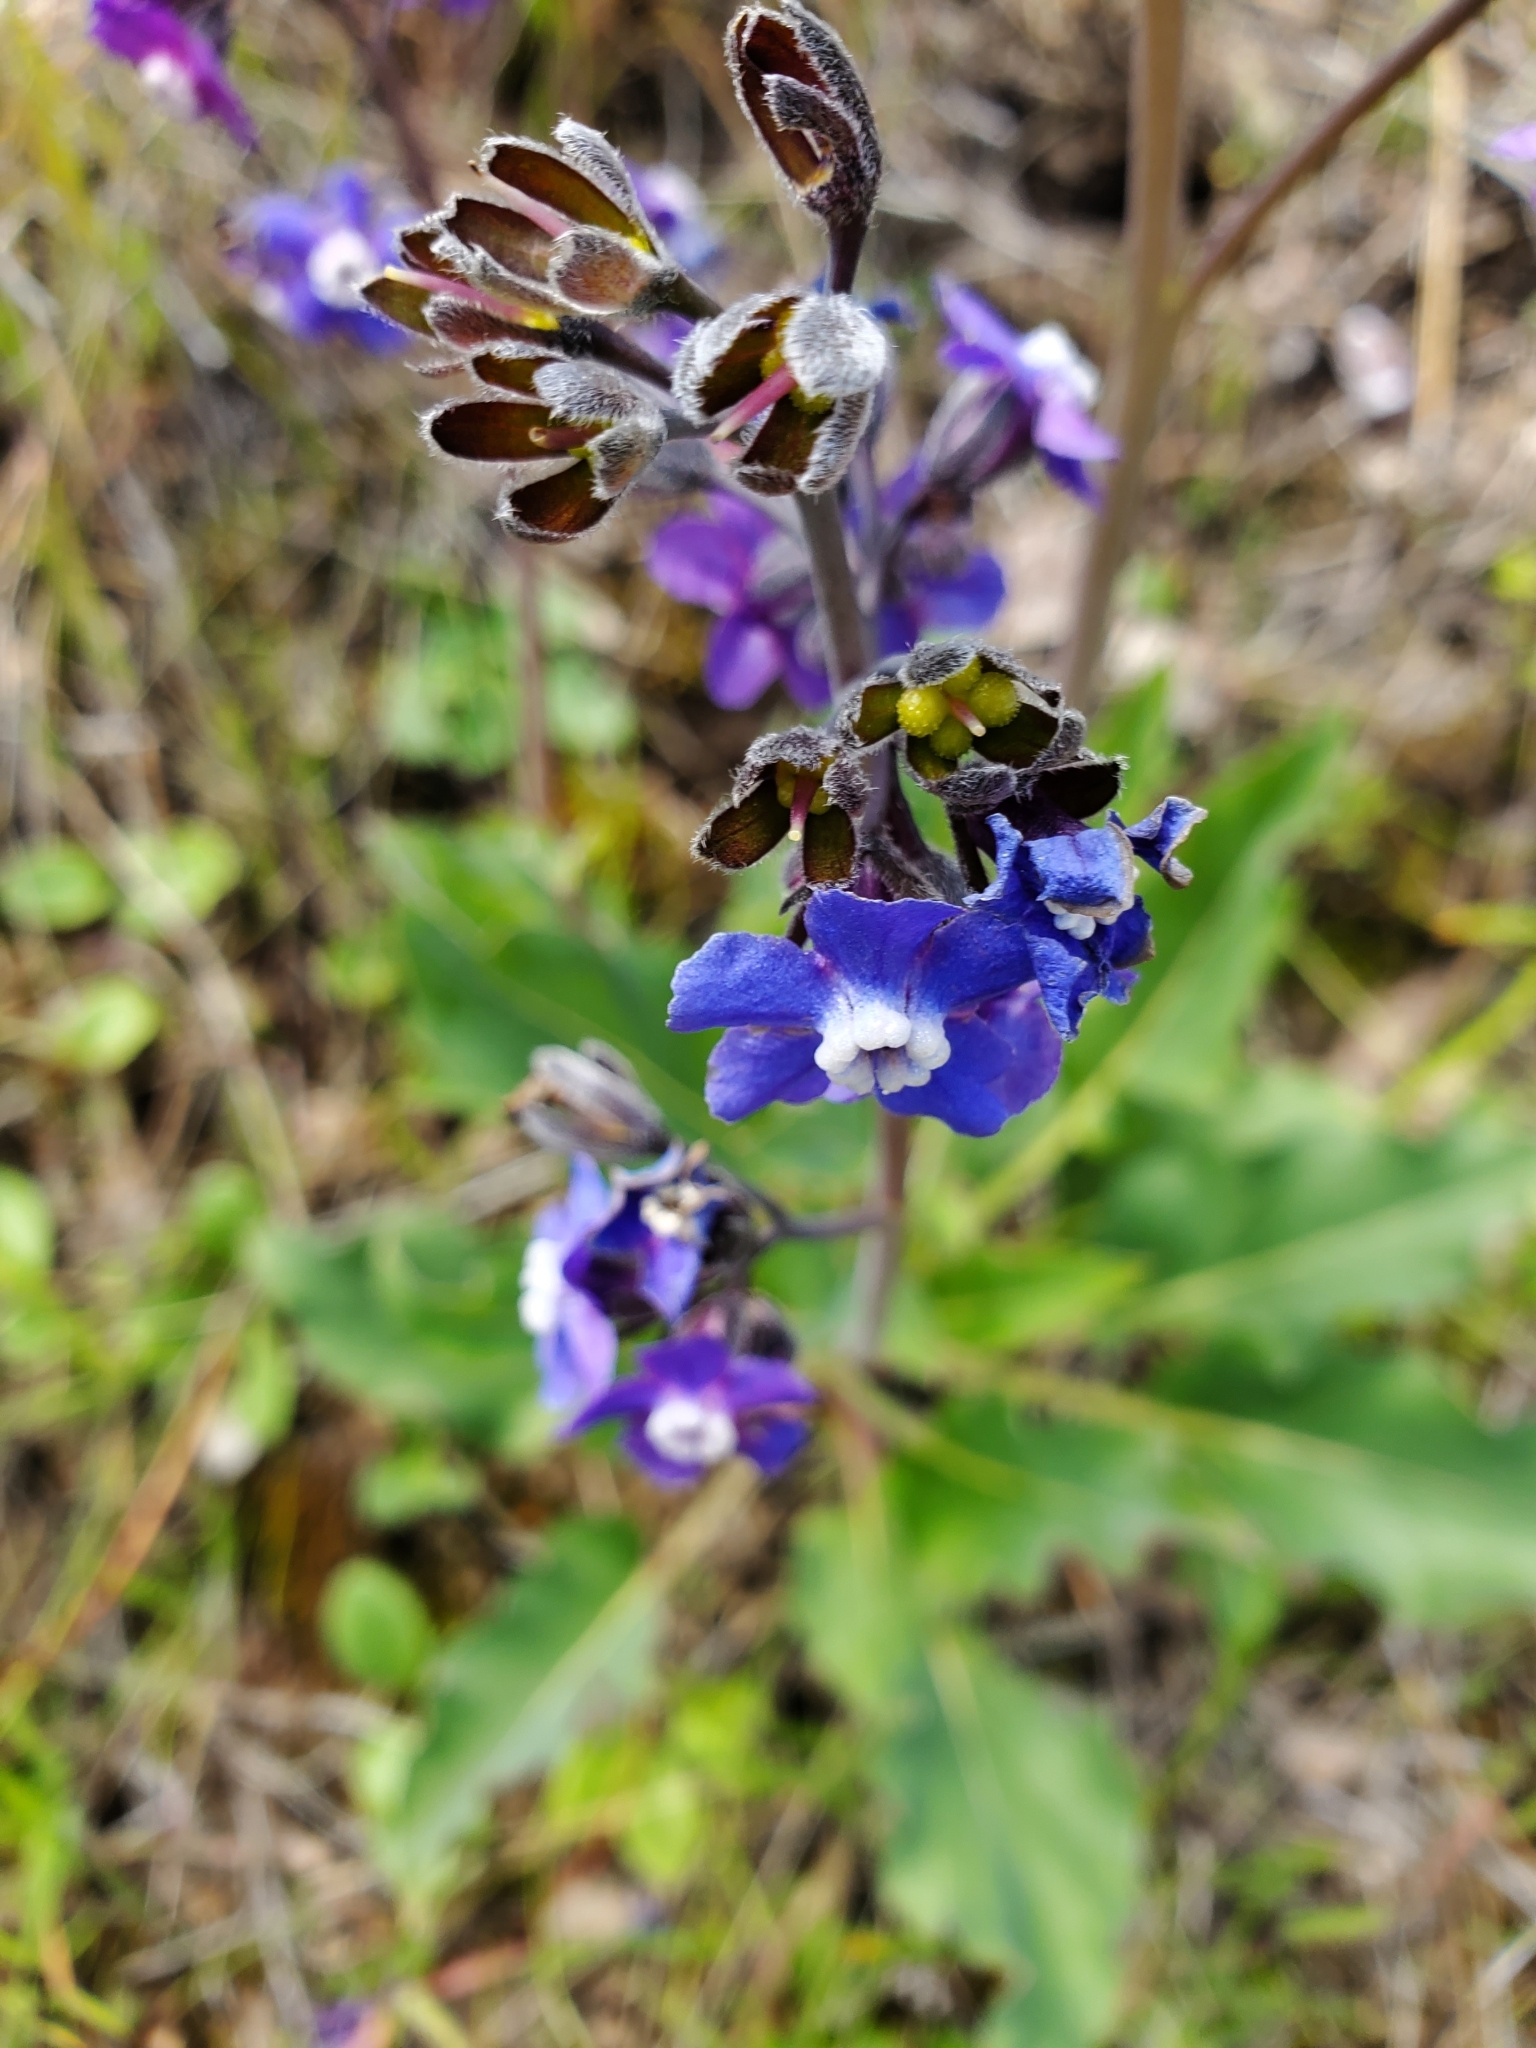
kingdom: Plantae
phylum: Tracheophyta
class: Magnoliopsida
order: Boraginales
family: Boraginaceae
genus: Adelinia
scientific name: Adelinia grande
